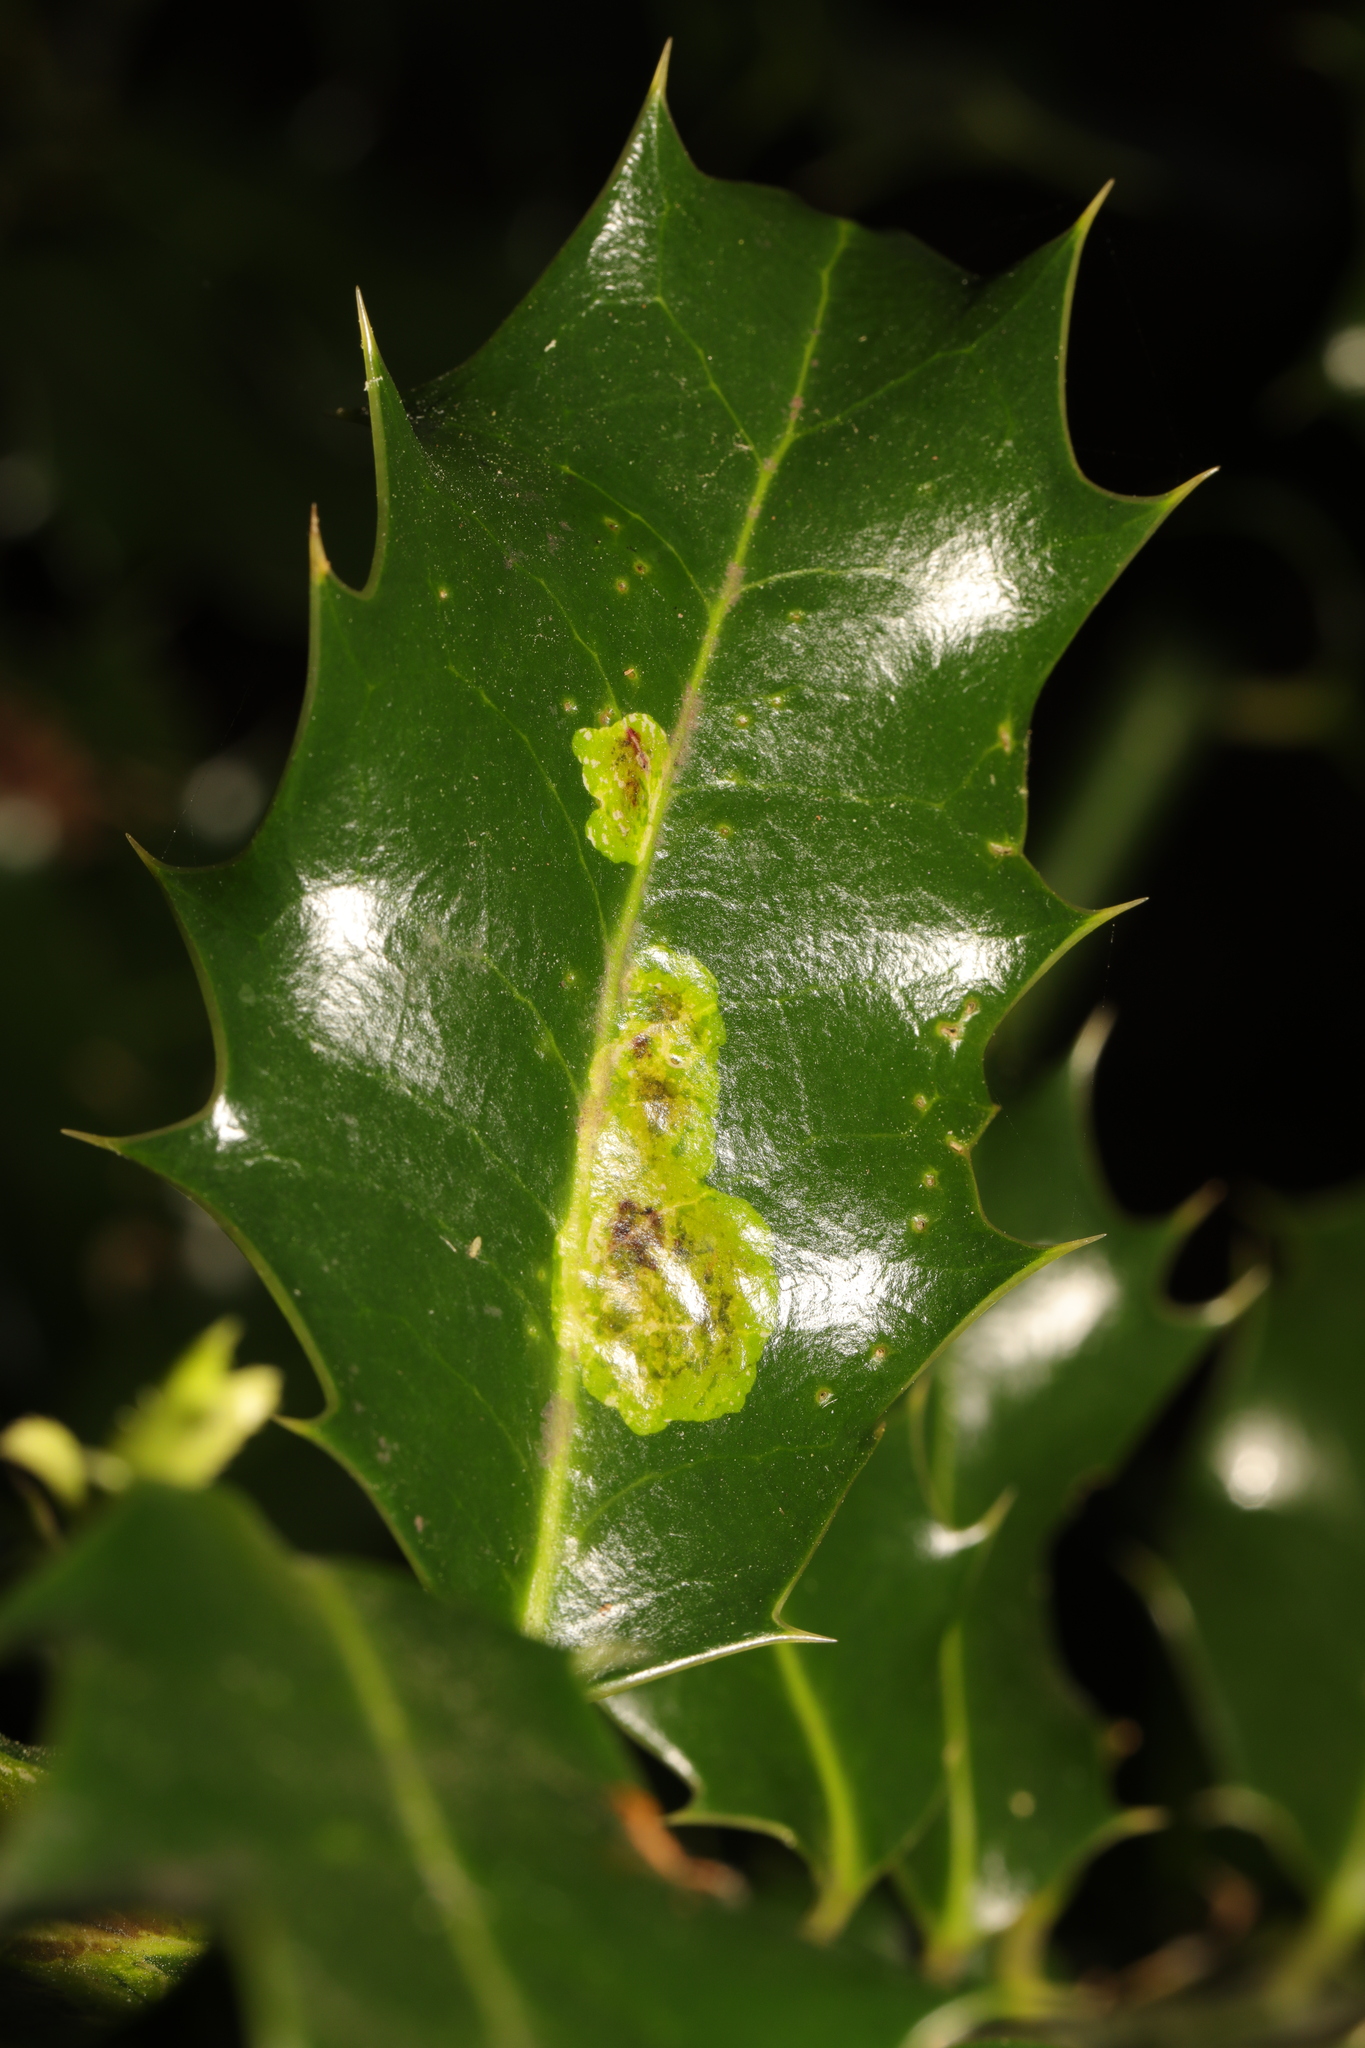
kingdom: Animalia
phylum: Arthropoda
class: Insecta
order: Diptera
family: Agromyzidae
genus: Phytomyza
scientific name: Phytomyza ilicis
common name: Holly leafminer
